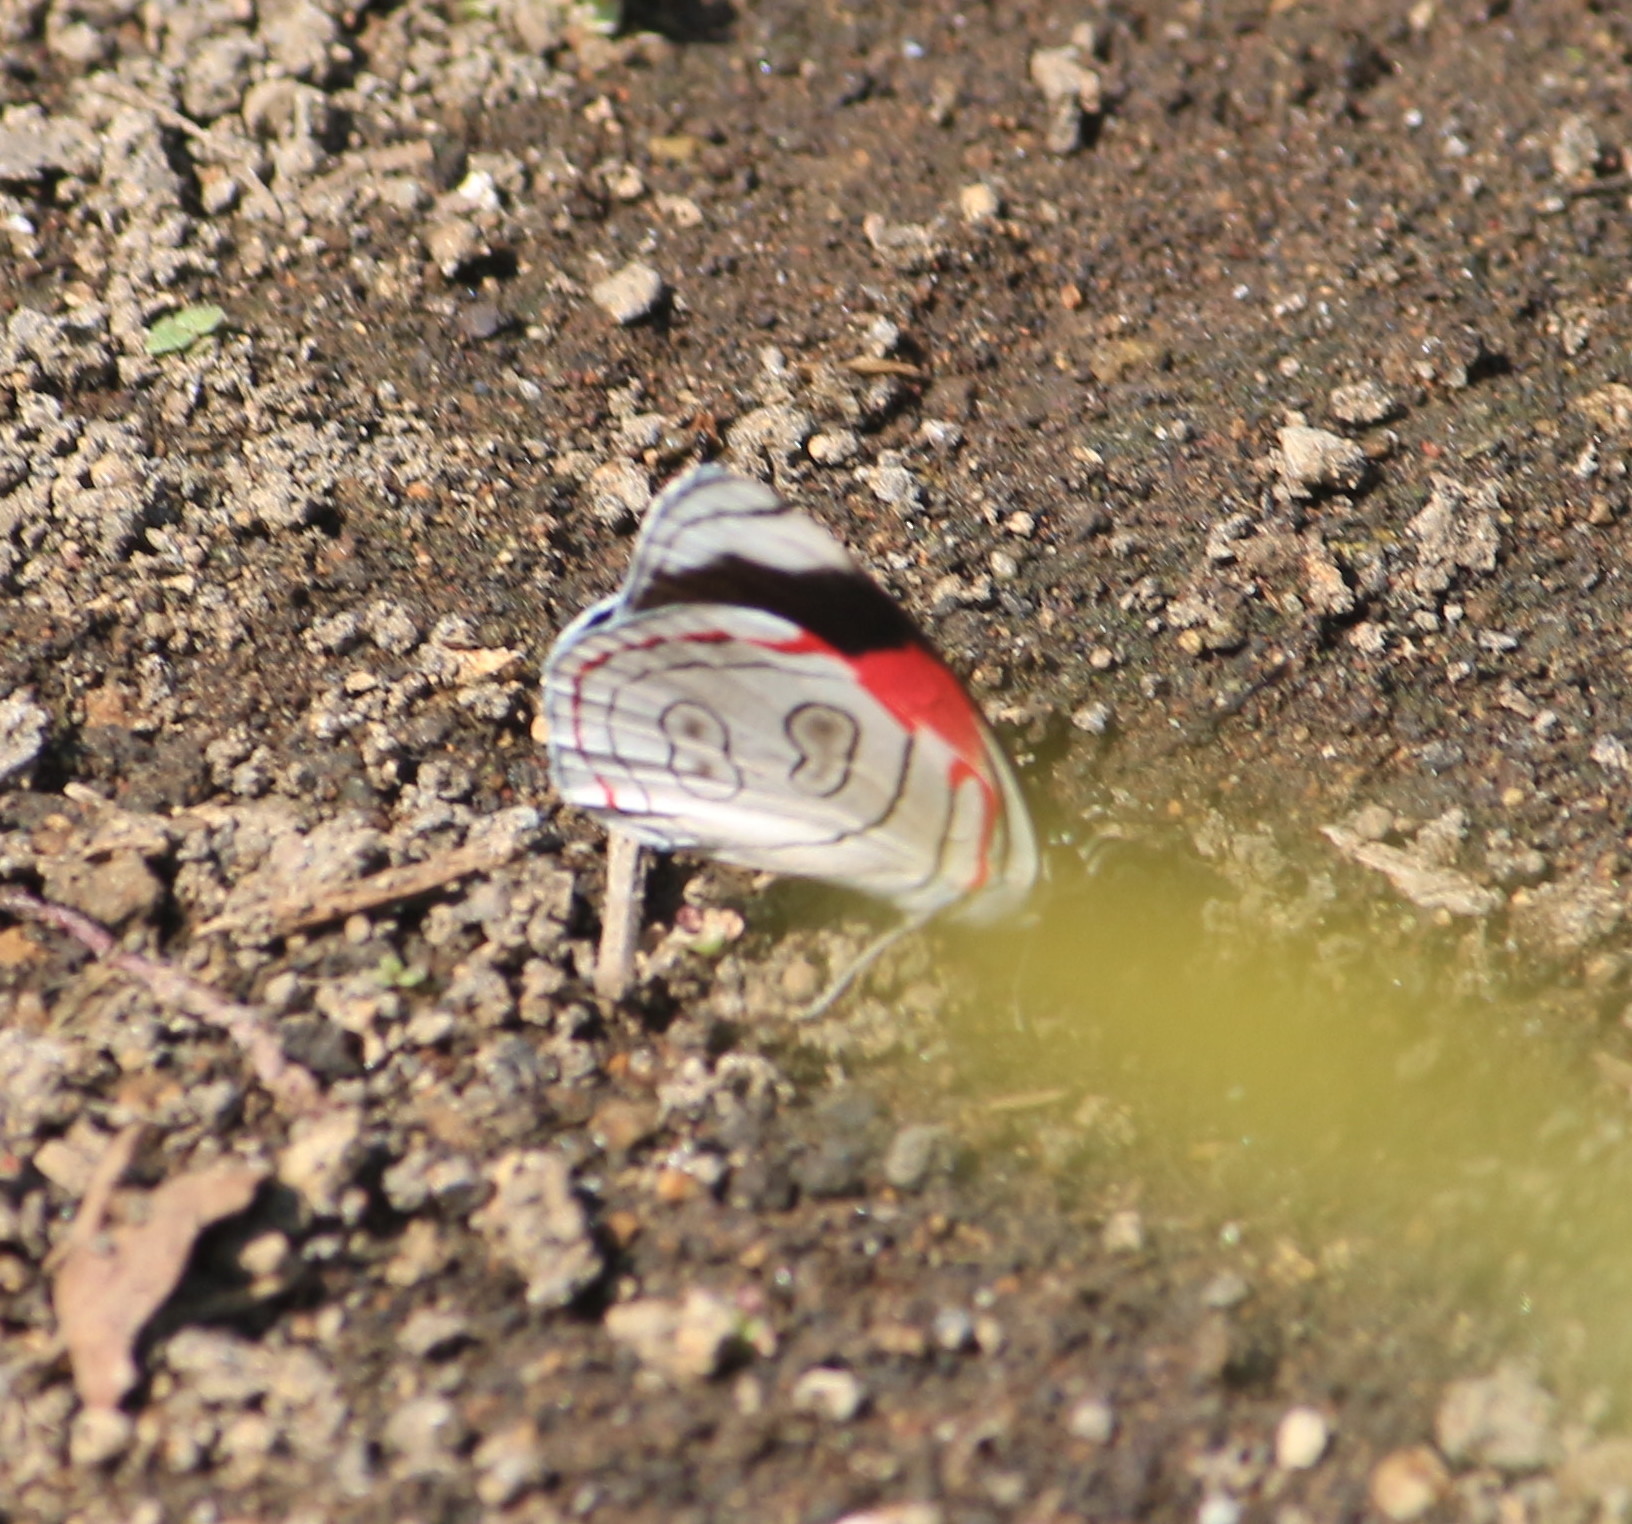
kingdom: Animalia
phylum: Arthropoda
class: Insecta
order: Lepidoptera
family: Nymphalidae
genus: Diaethria
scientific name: Diaethria astala
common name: Navy eighty-eight
